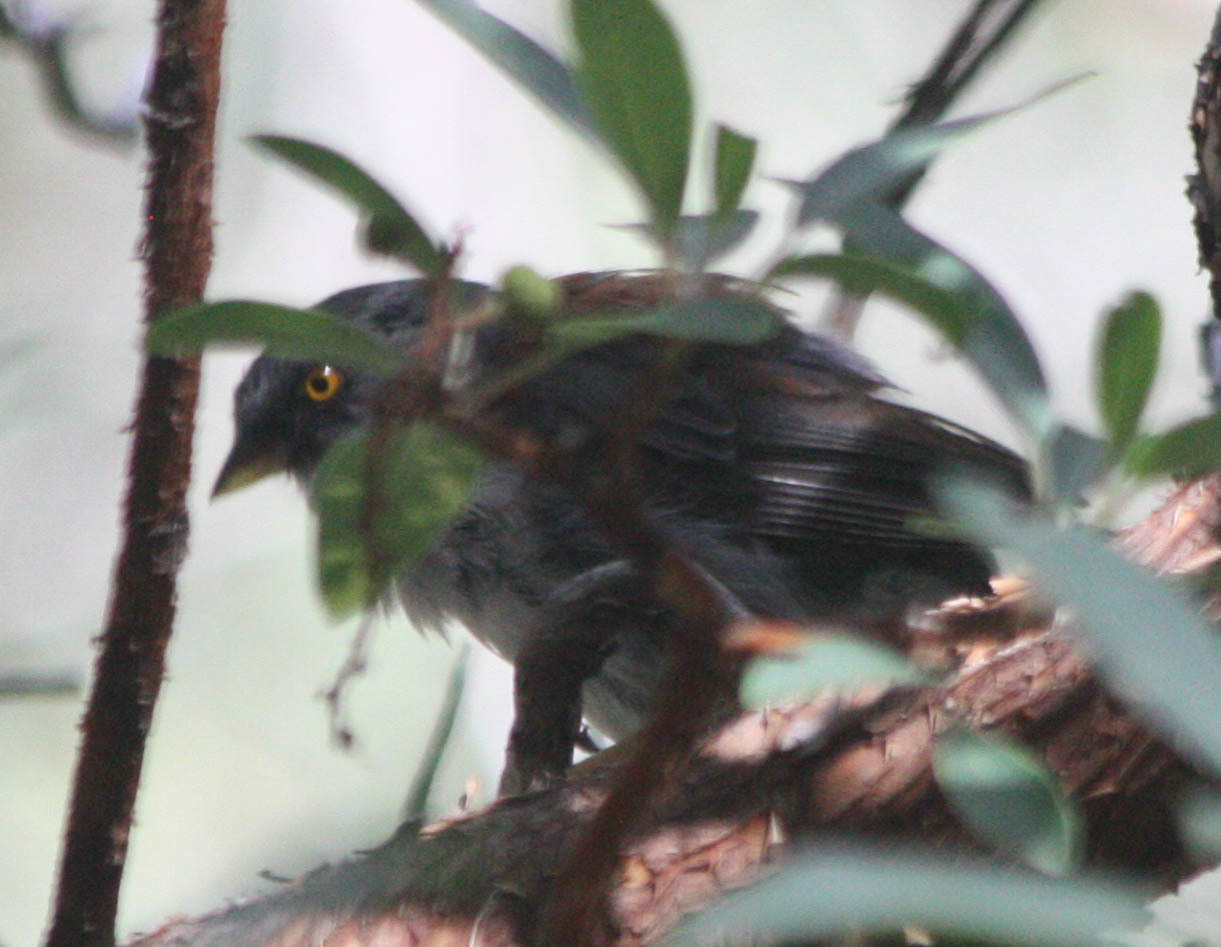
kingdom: Animalia
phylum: Chordata
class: Aves
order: Passeriformes
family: Passerellidae
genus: Junco
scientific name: Junco phaeonotus
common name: Yellow-eyed junco
